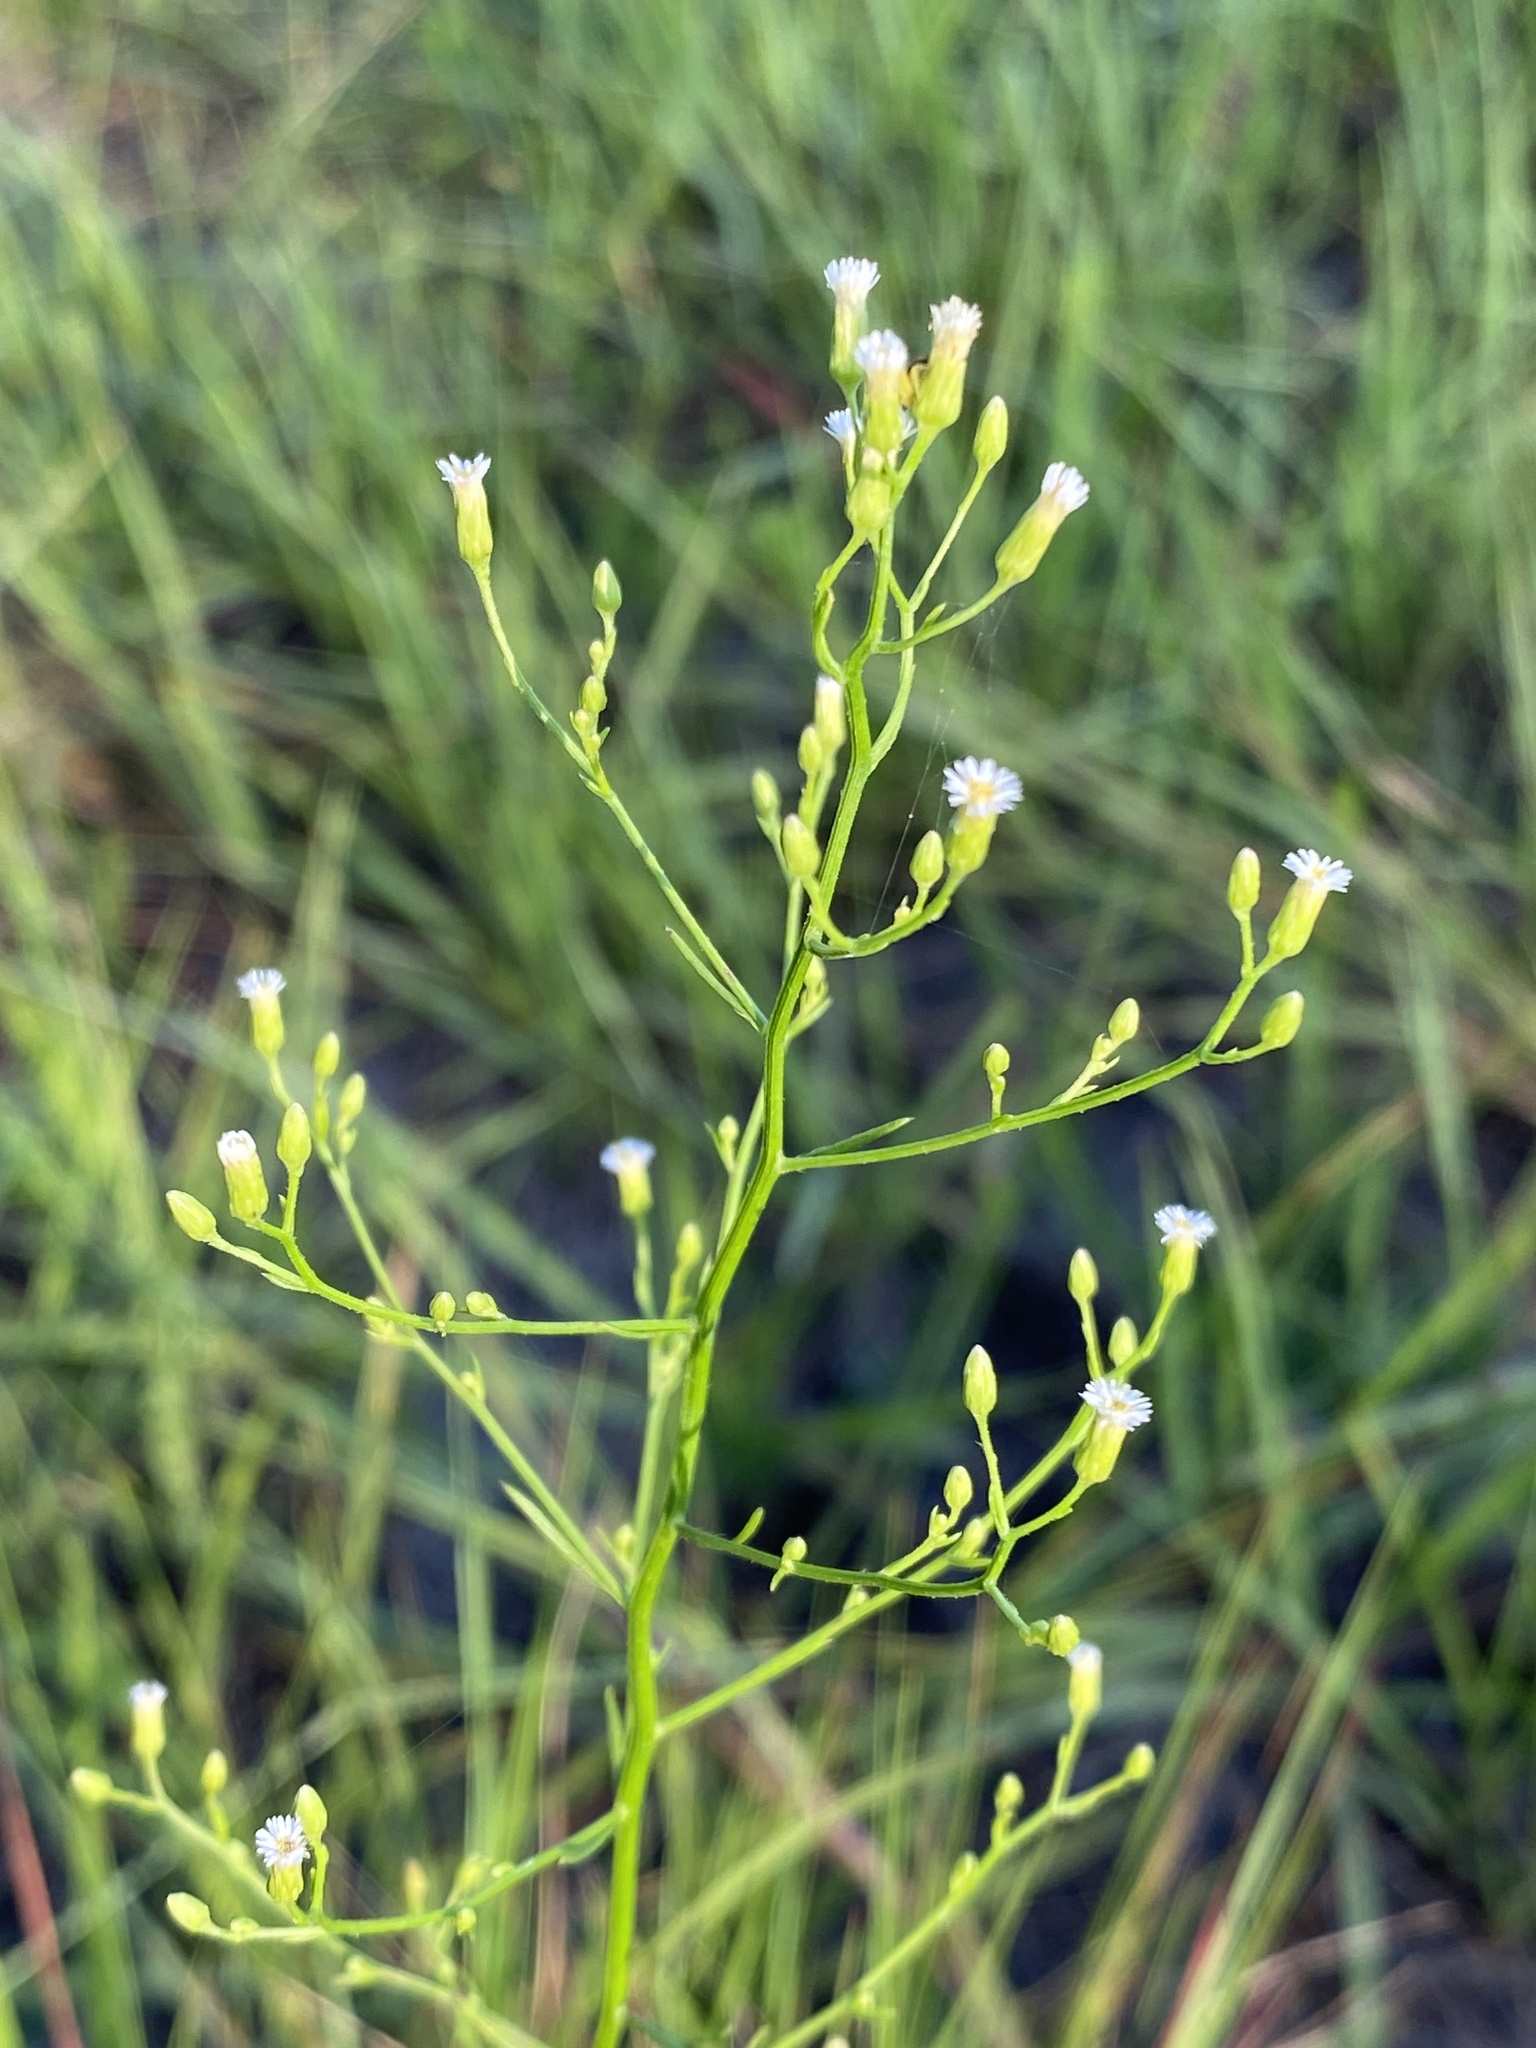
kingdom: Plantae
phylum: Tracheophyta
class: Magnoliopsida
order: Asterales
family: Asteraceae
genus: Erigeron
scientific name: Erigeron canadensis
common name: Canadian fleabane
